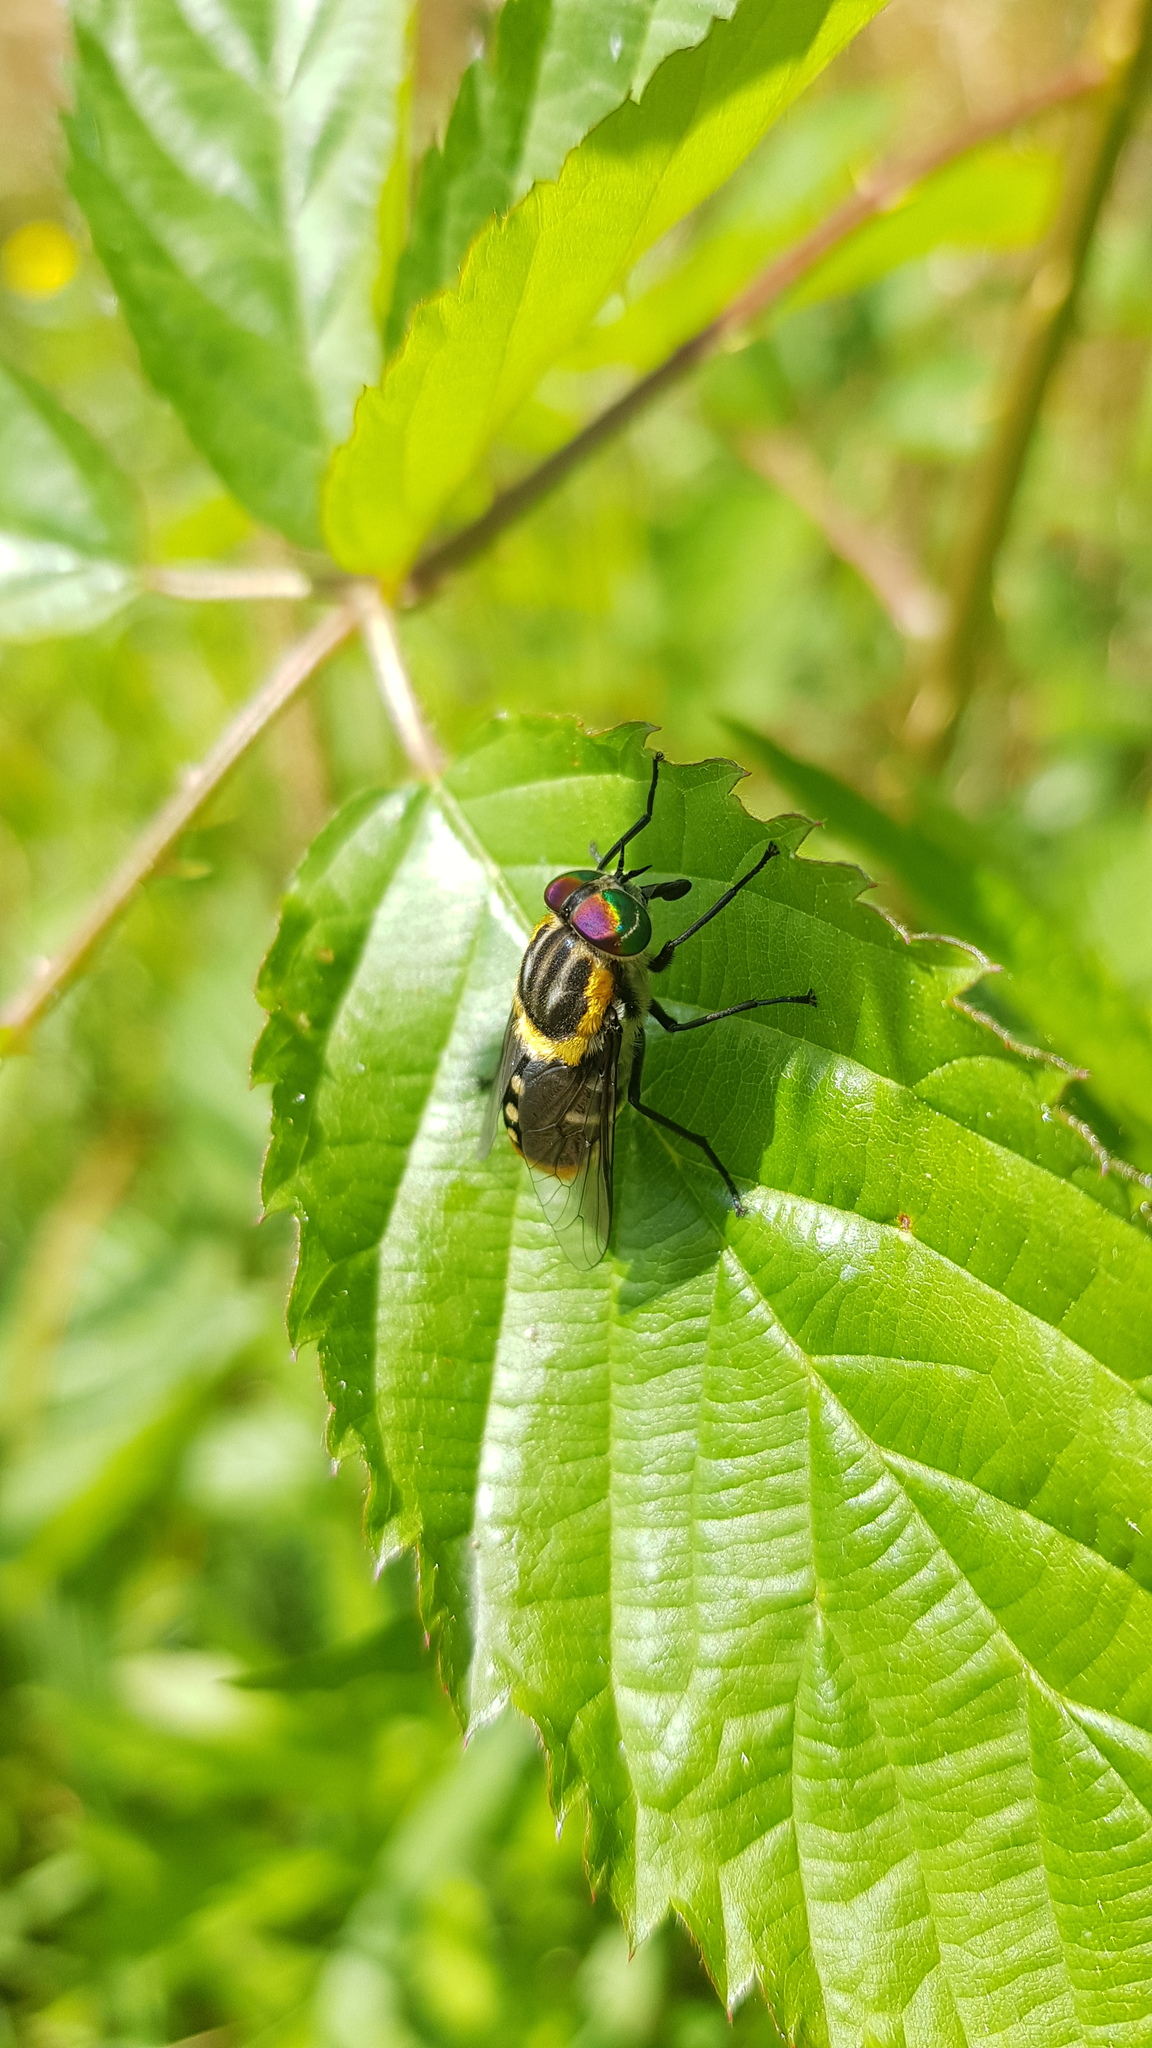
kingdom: Animalia
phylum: Arthropoda
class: Insecta
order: Diptera
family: Tabanidae
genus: Scaptia
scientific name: Scaptia auriflua
